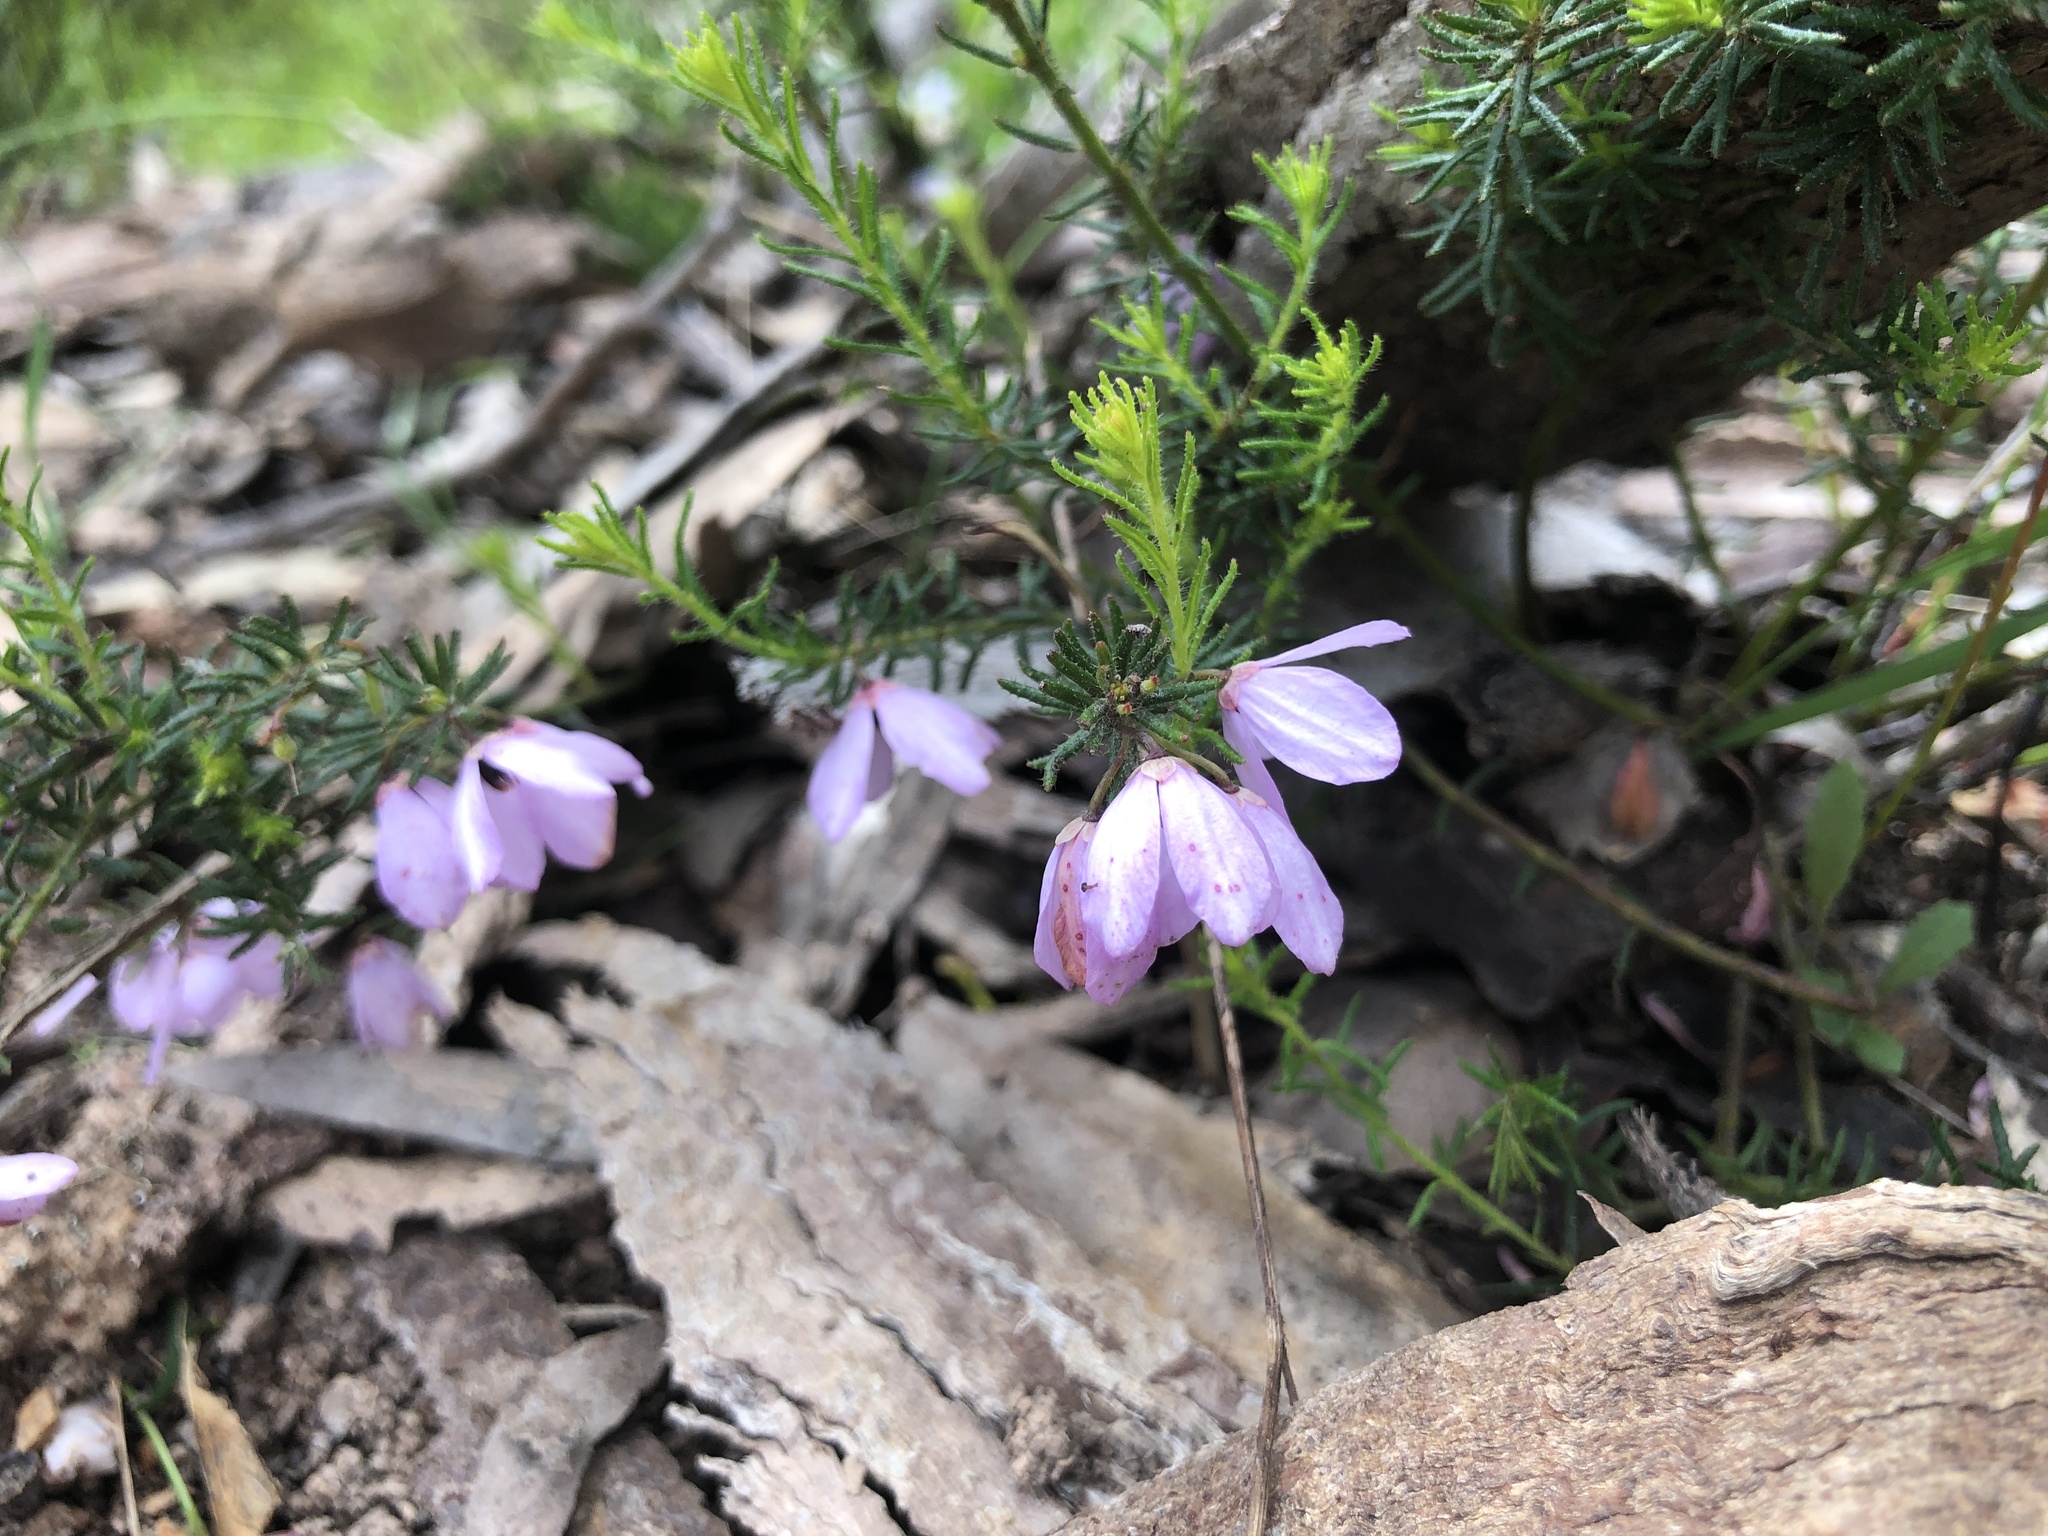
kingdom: Plantae
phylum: Tracheophyta
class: Magnoliopsida
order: Oxalidales
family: Elaeocarpaceae
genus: Tetratheca
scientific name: Tetratheca pilosa
